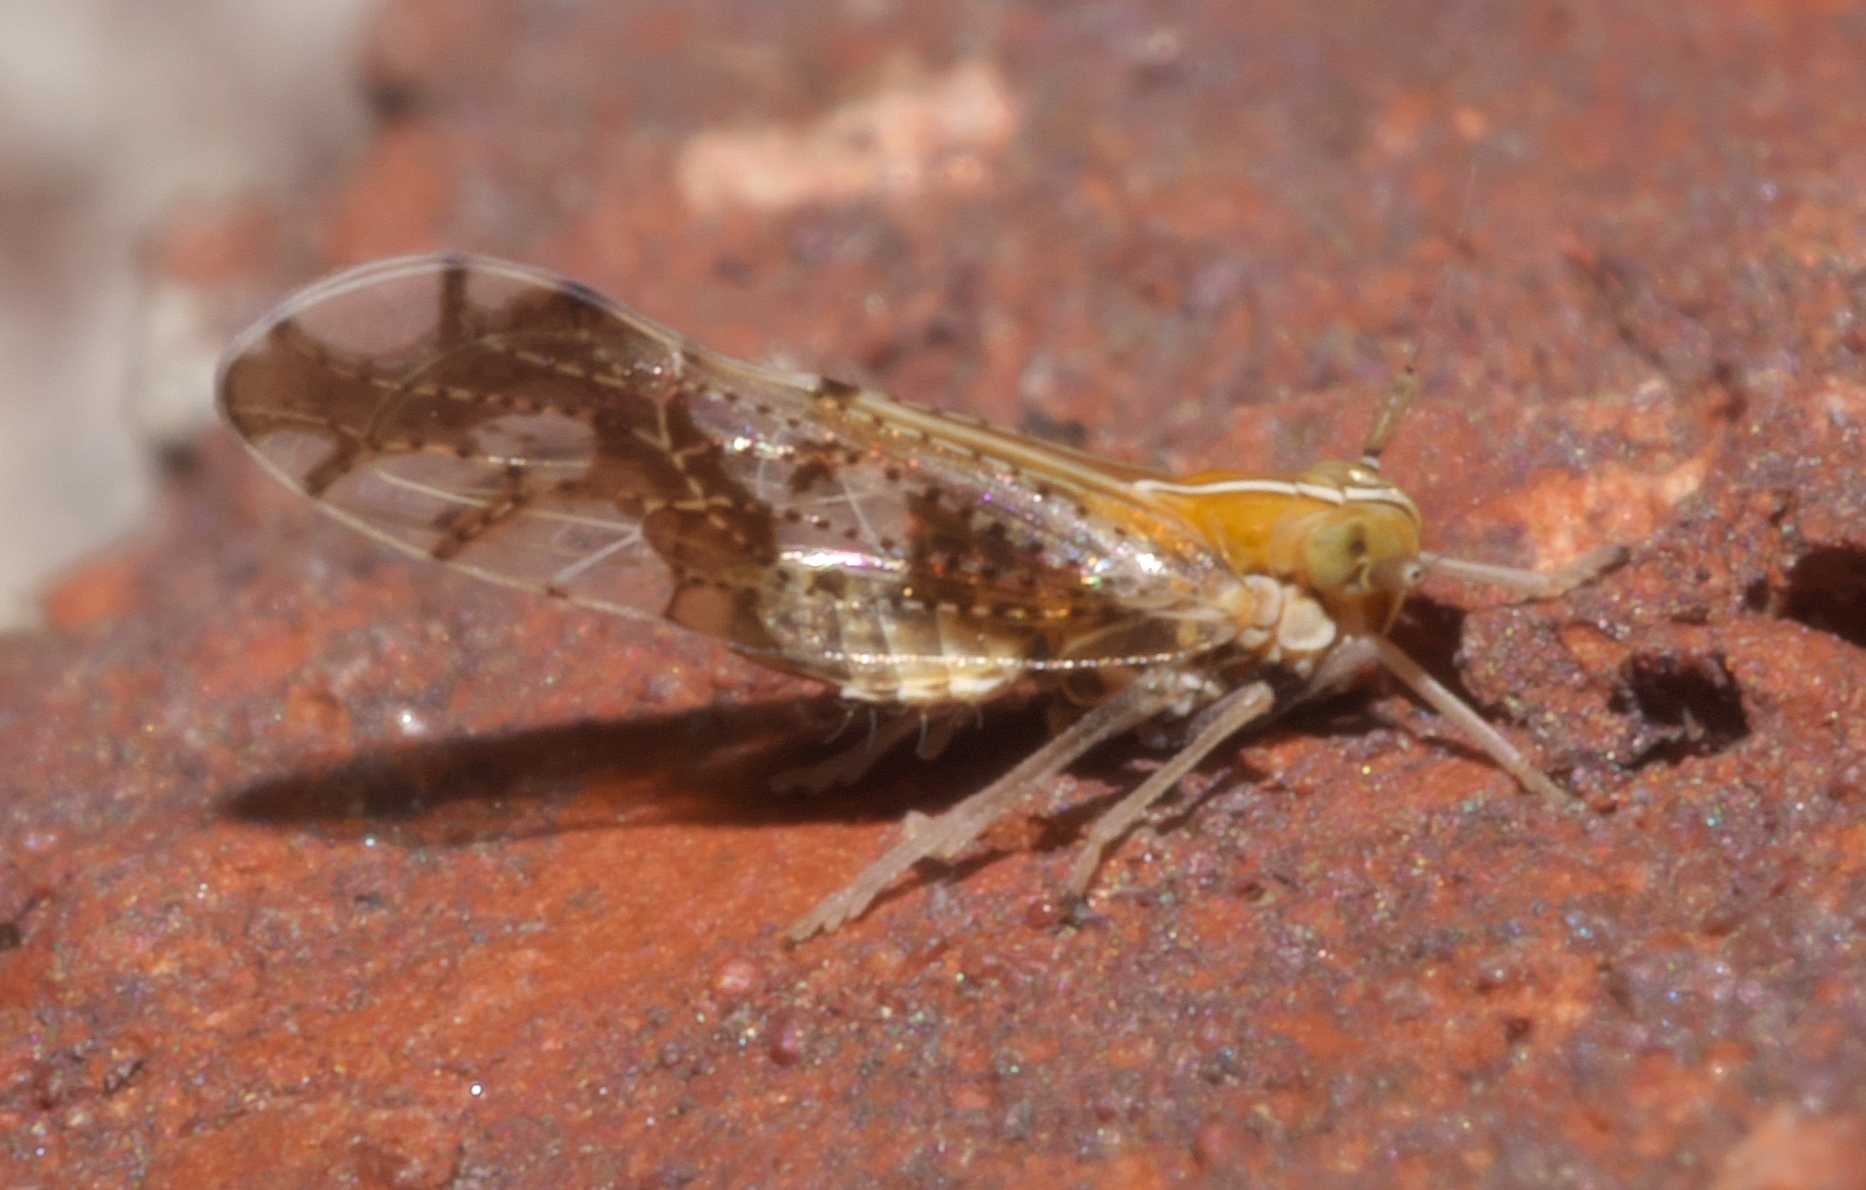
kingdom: Animalia
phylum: Arthropoda
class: Insecta
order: Hemiptera
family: Delphacidae
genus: Liburniella
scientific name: Liburniella ornata
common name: Ornate planthopper
